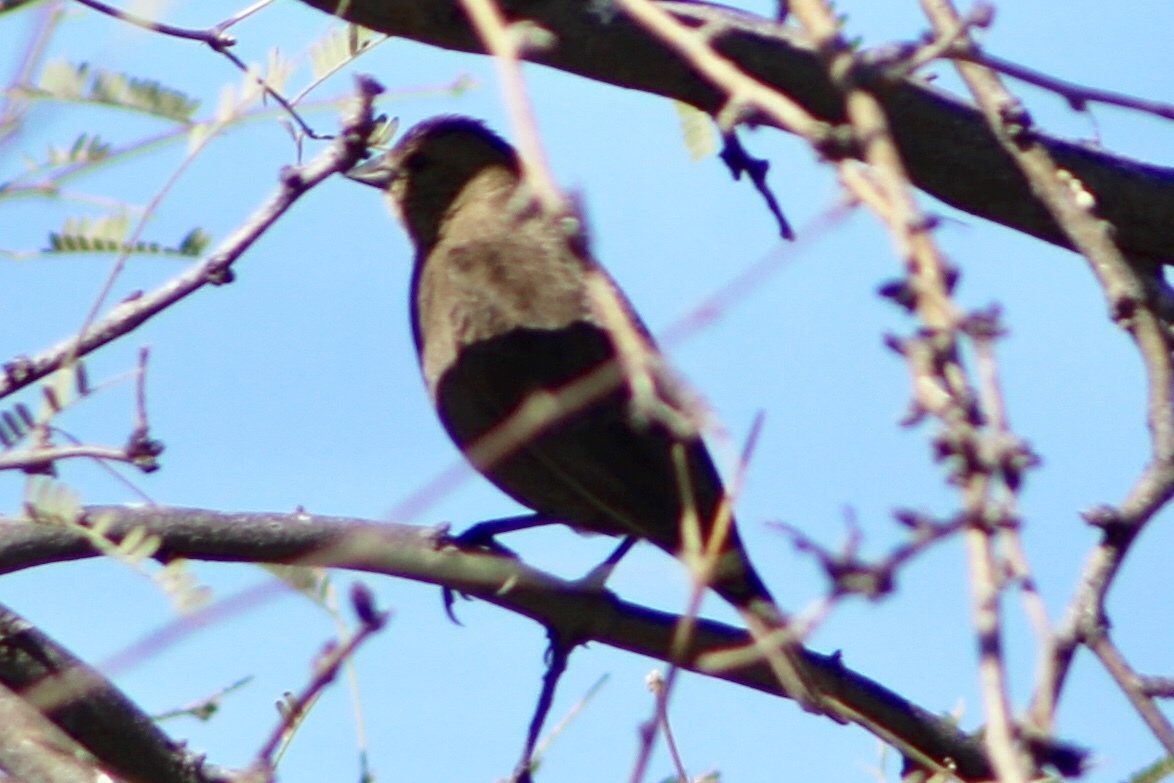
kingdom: Animalia
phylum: Chordata
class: Aves
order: Passeriformes
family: Icteridae
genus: Molothrus
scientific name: Molothrus ater
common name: Brown-headed cowbird
